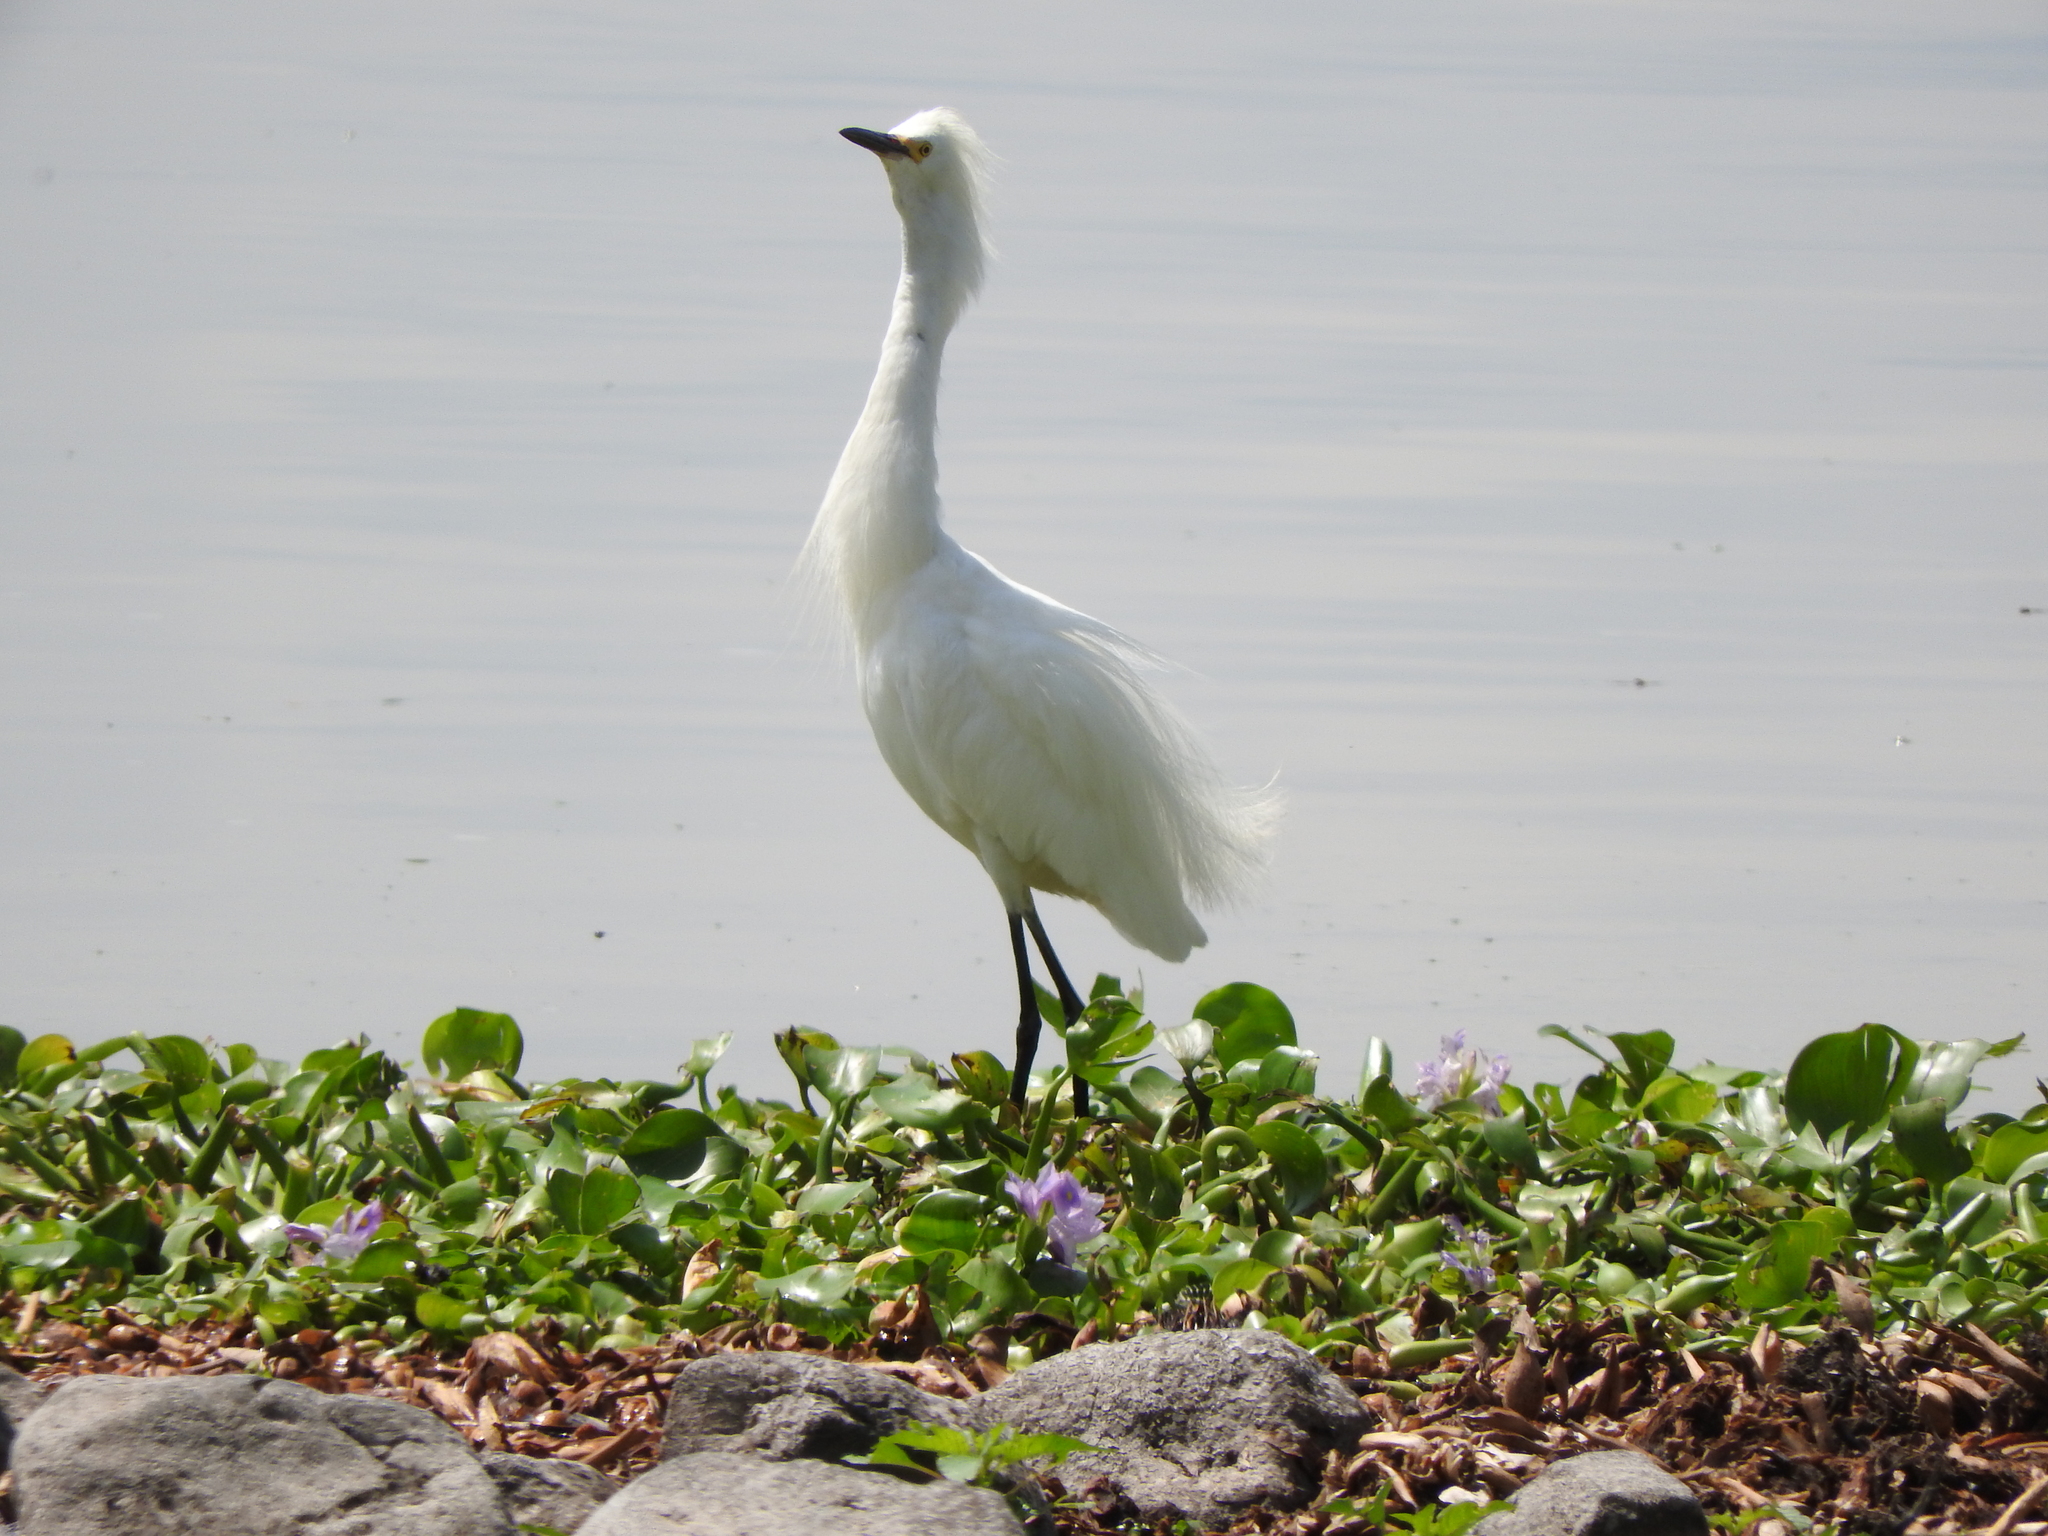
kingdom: Animalia
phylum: Chordata
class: Aves
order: Pelecaniformes
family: Ardeidae
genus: Egretta
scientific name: Egretta thula
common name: Snowy egret
